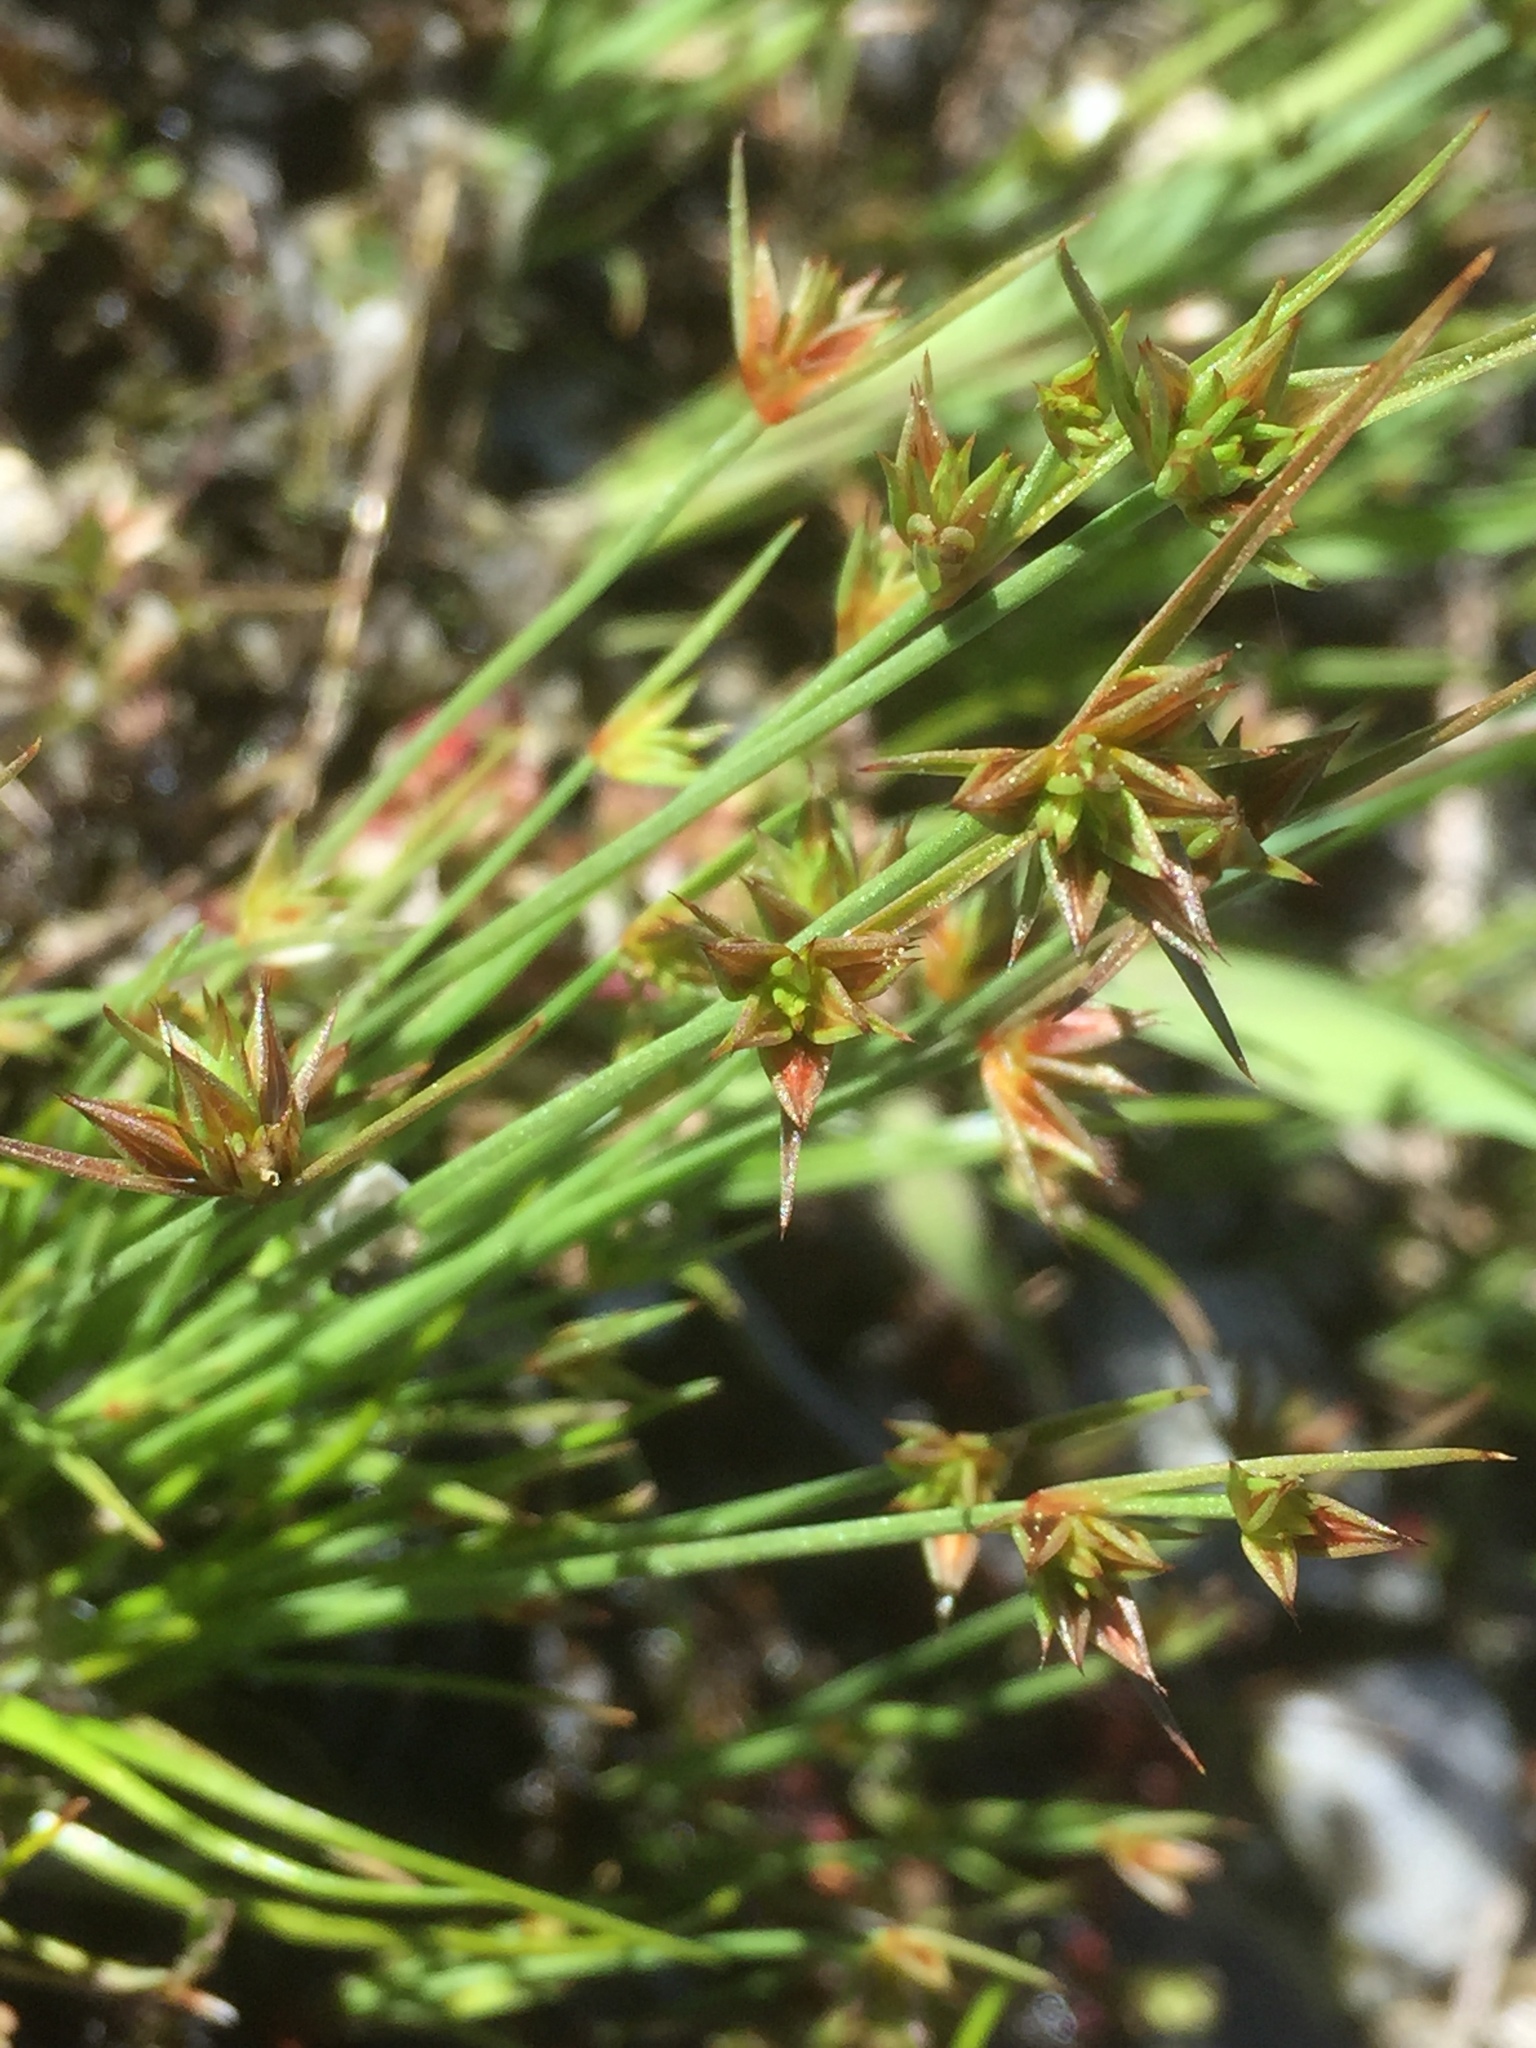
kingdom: Plantae
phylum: Tracheophyta
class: Liliopsida
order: Poales
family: Juncaceae
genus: Juncus
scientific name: Juncus capitatus
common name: Dwarf rush
